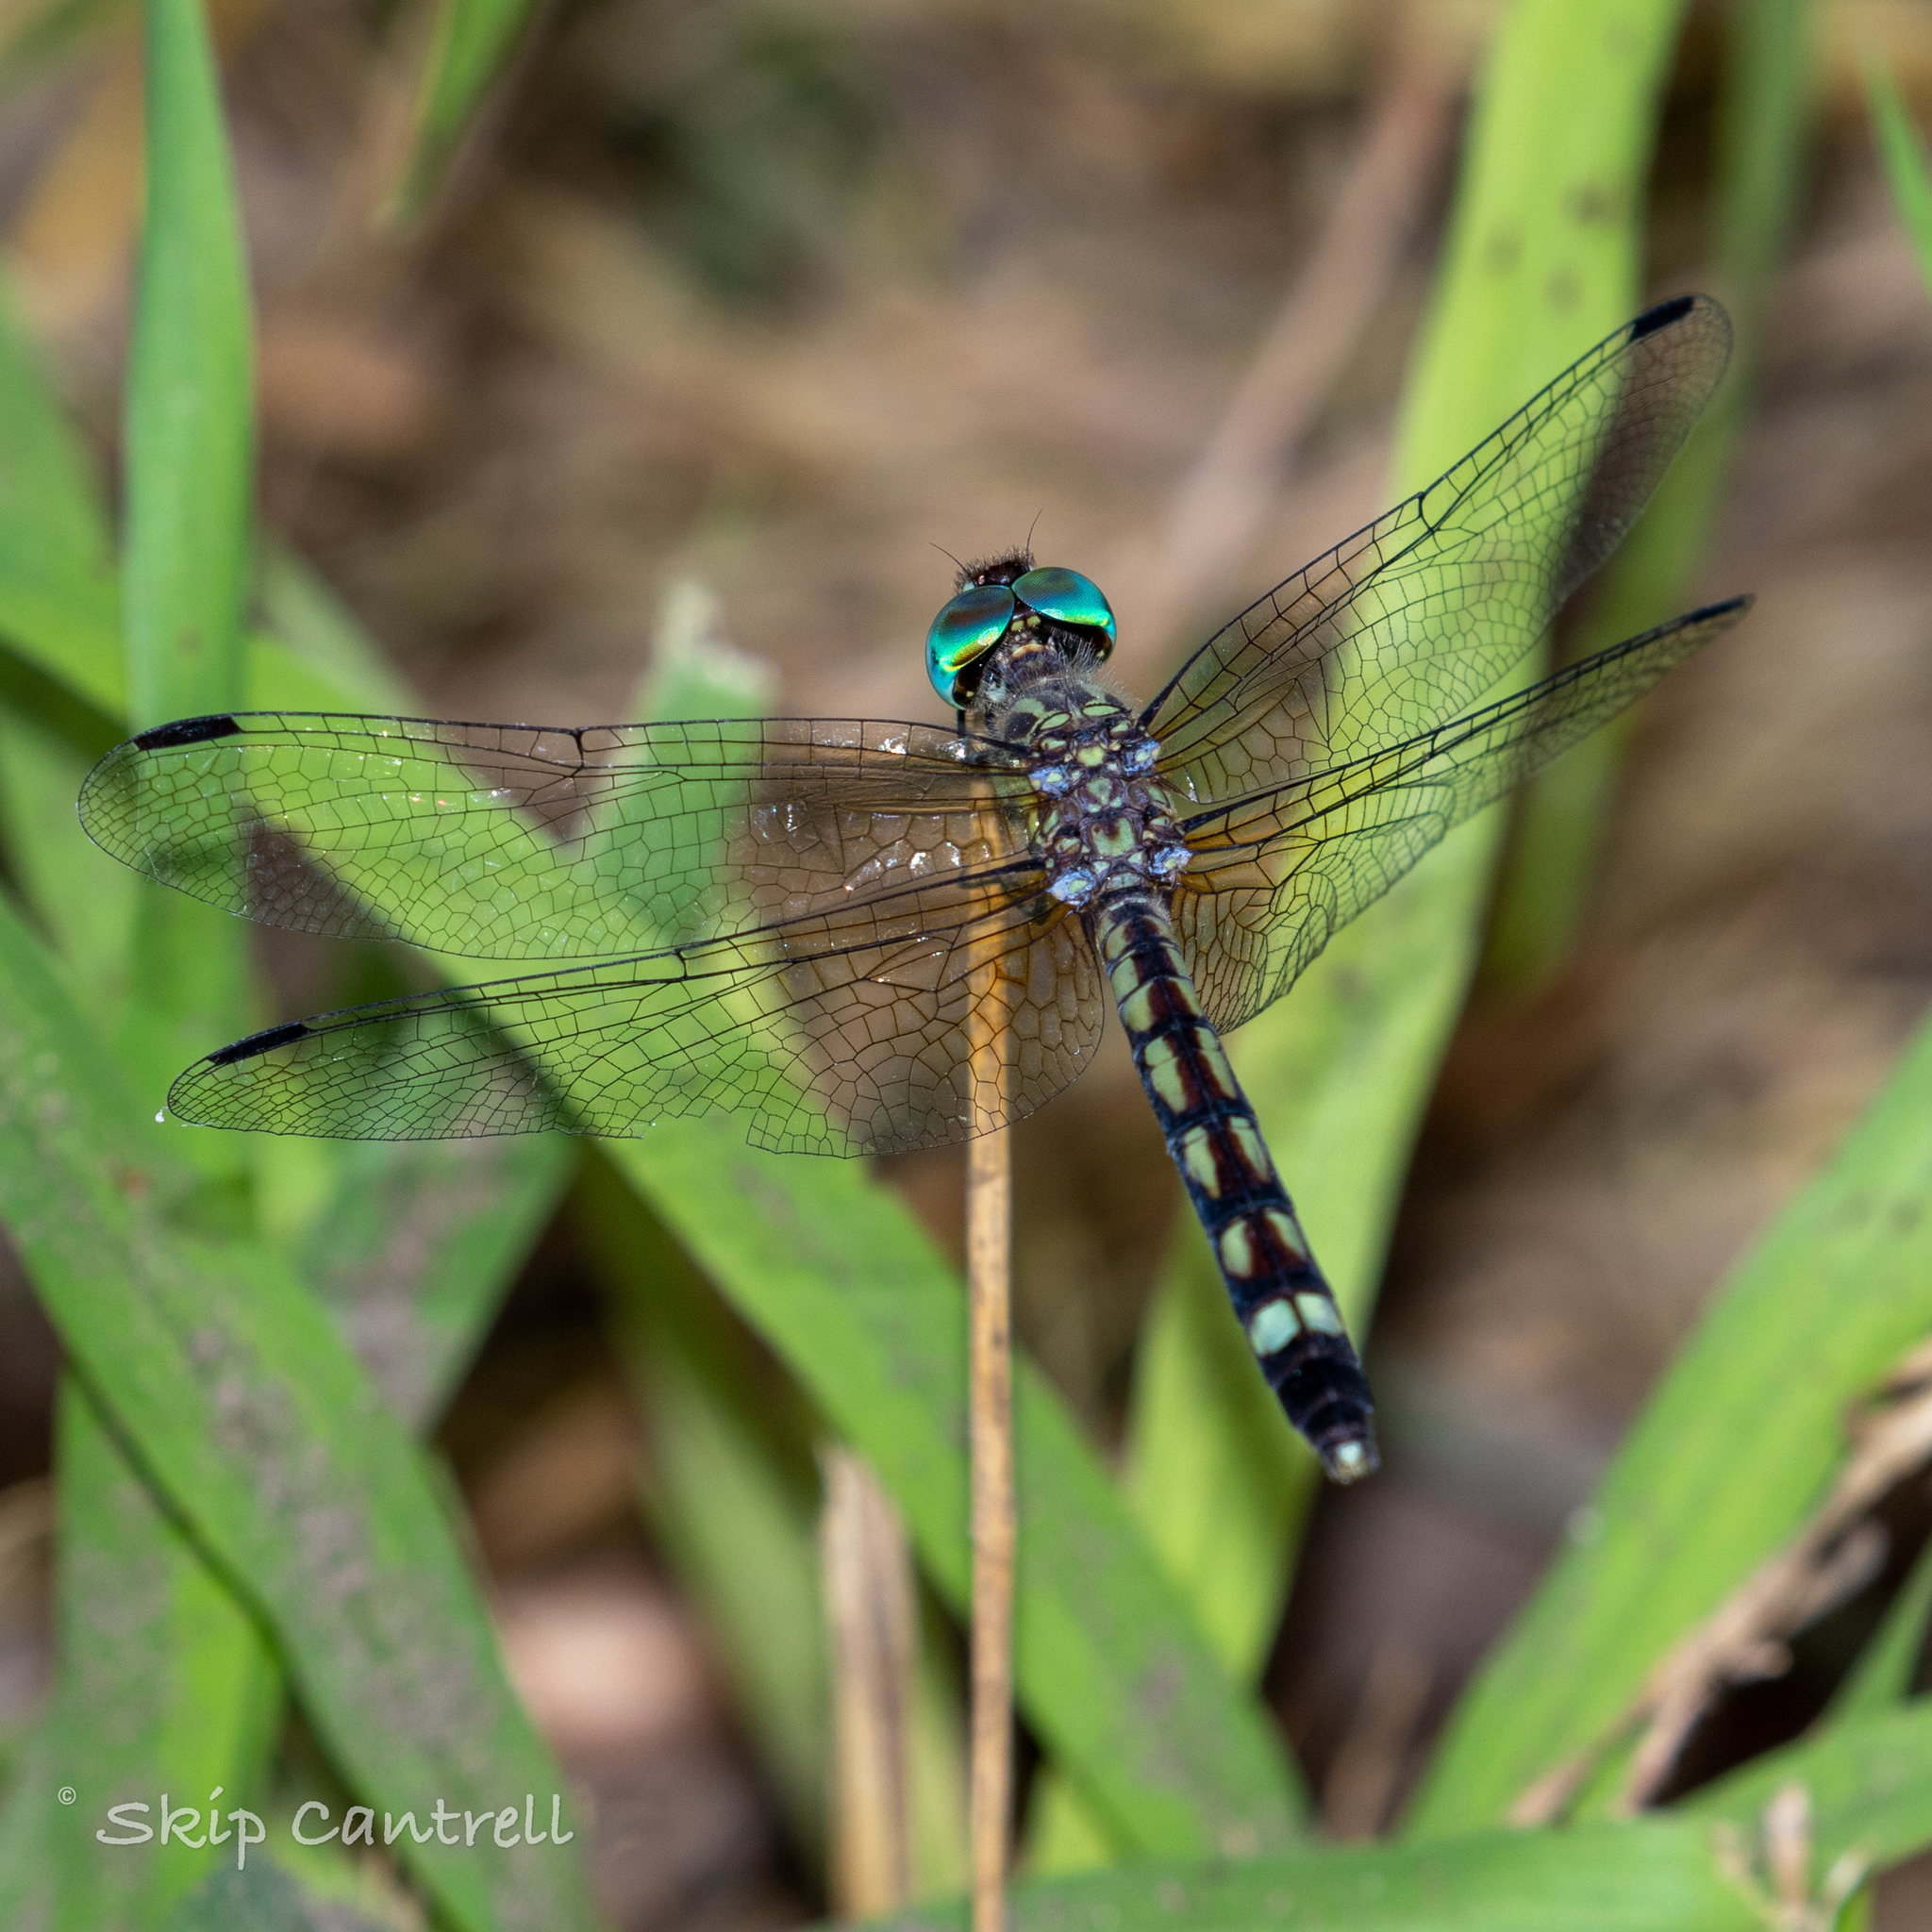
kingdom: Animalia
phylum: Arthropoda
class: Insecta
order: Odonata
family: Libellulidae
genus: Micrathyria
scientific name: Micrathyria hagenii
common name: Thornbush dasher
